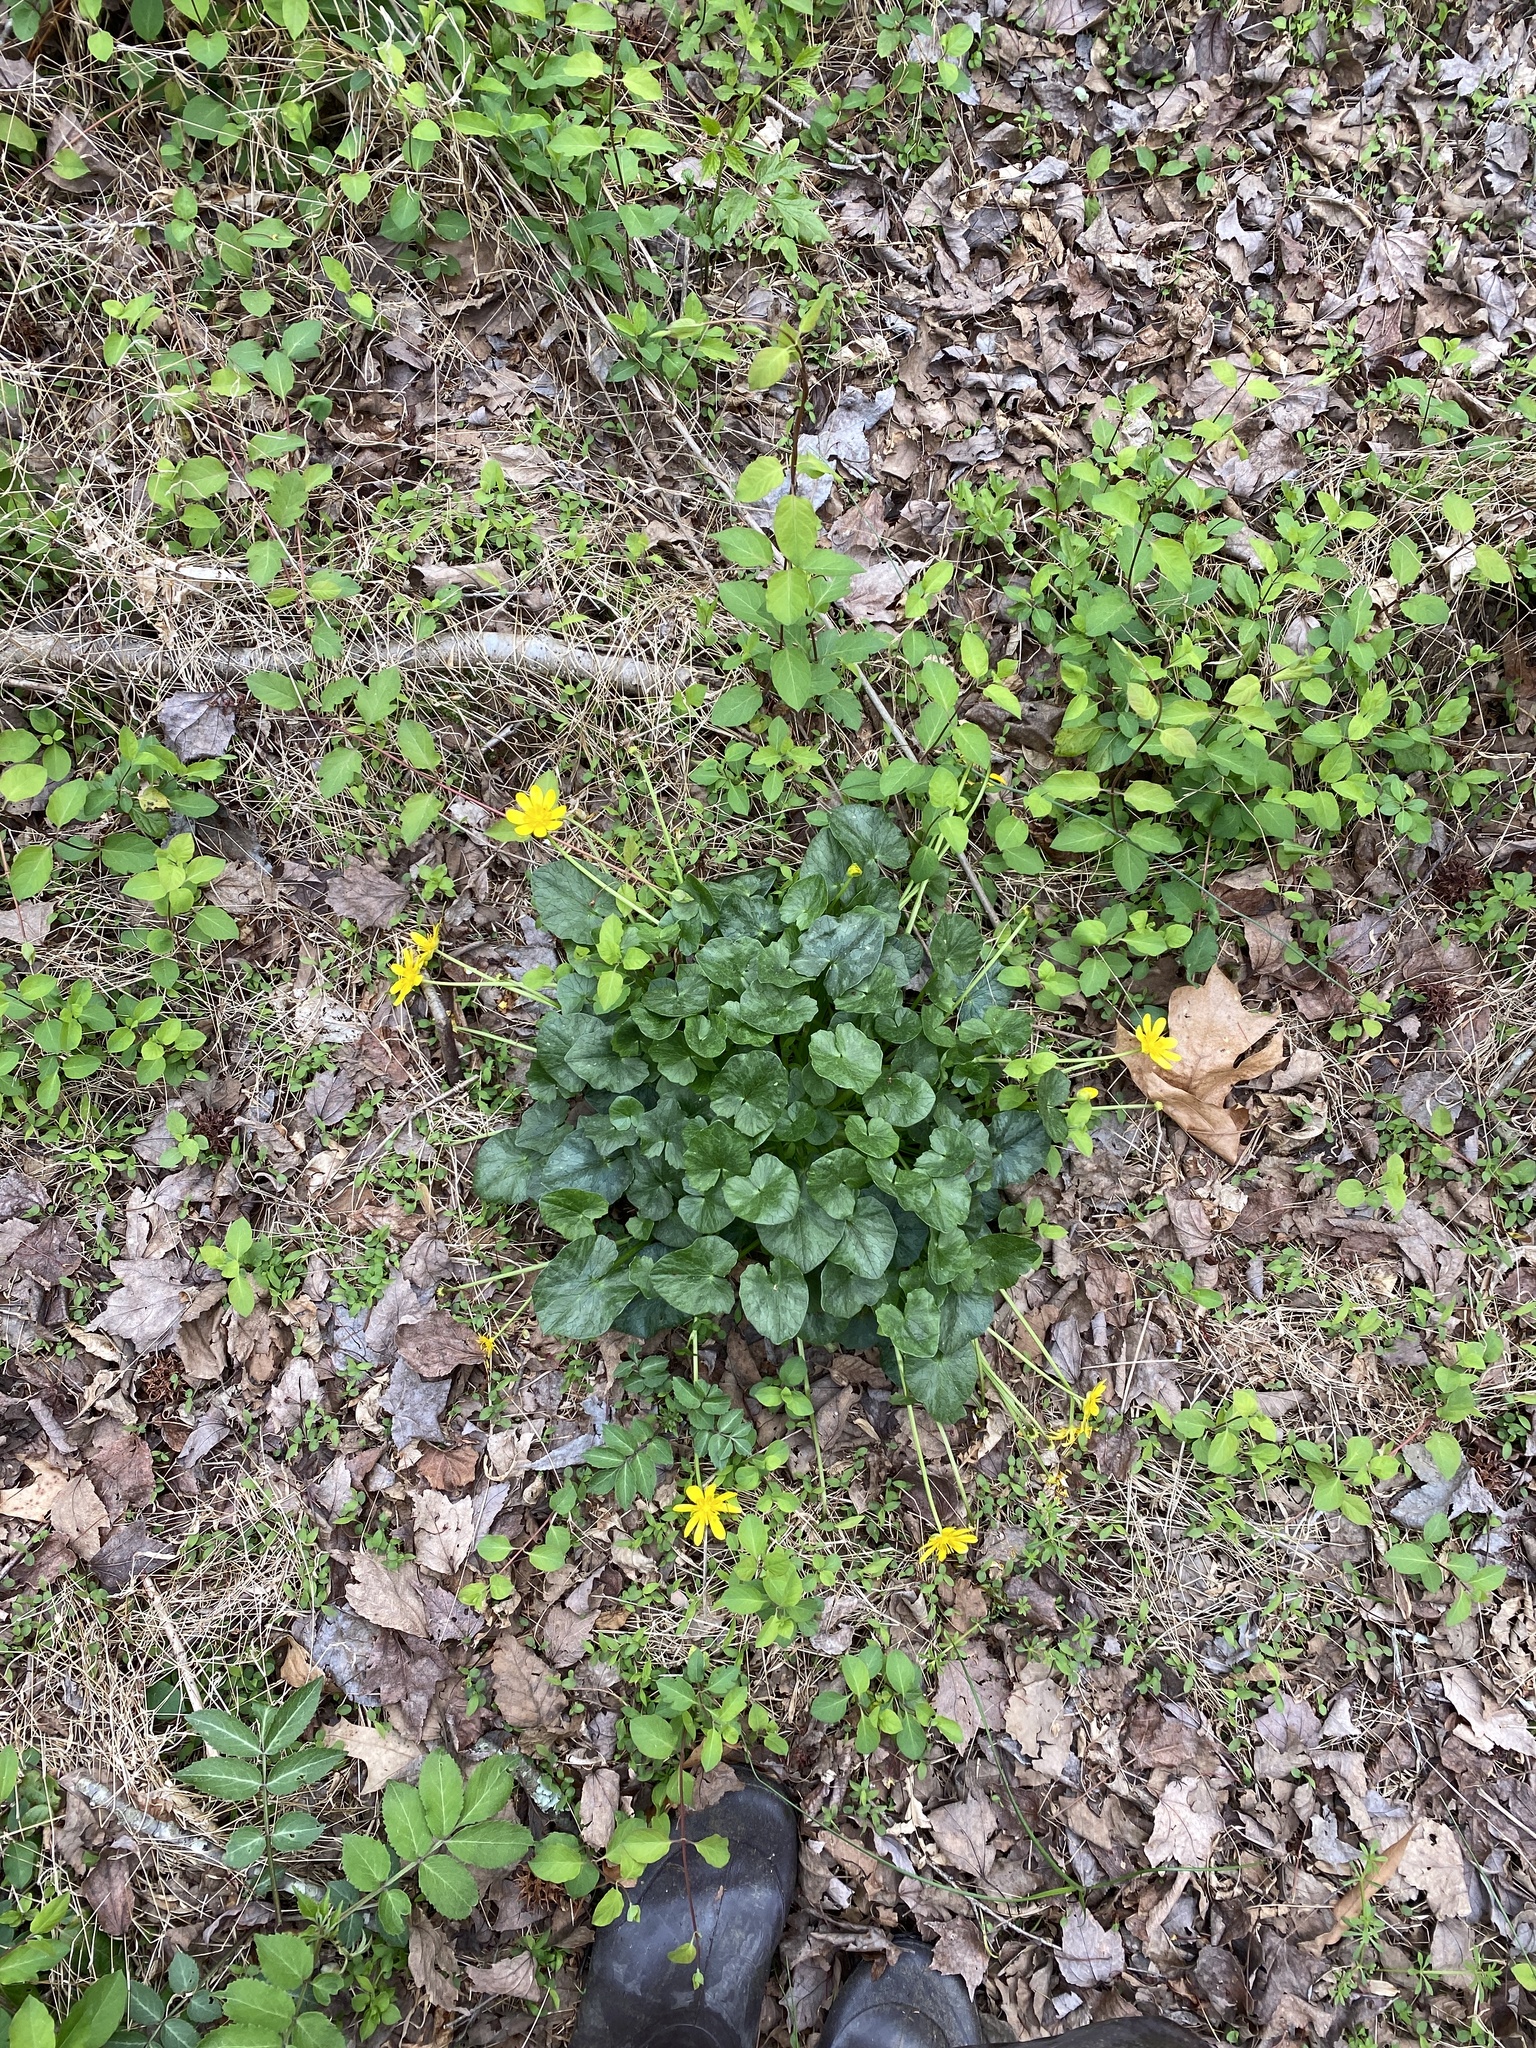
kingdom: Plantae
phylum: Tracheophyta
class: Magnoliopsida
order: Ranunculales
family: Ranunculaceae
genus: Ficaria
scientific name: Ficaria verna
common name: Lesser celandine
